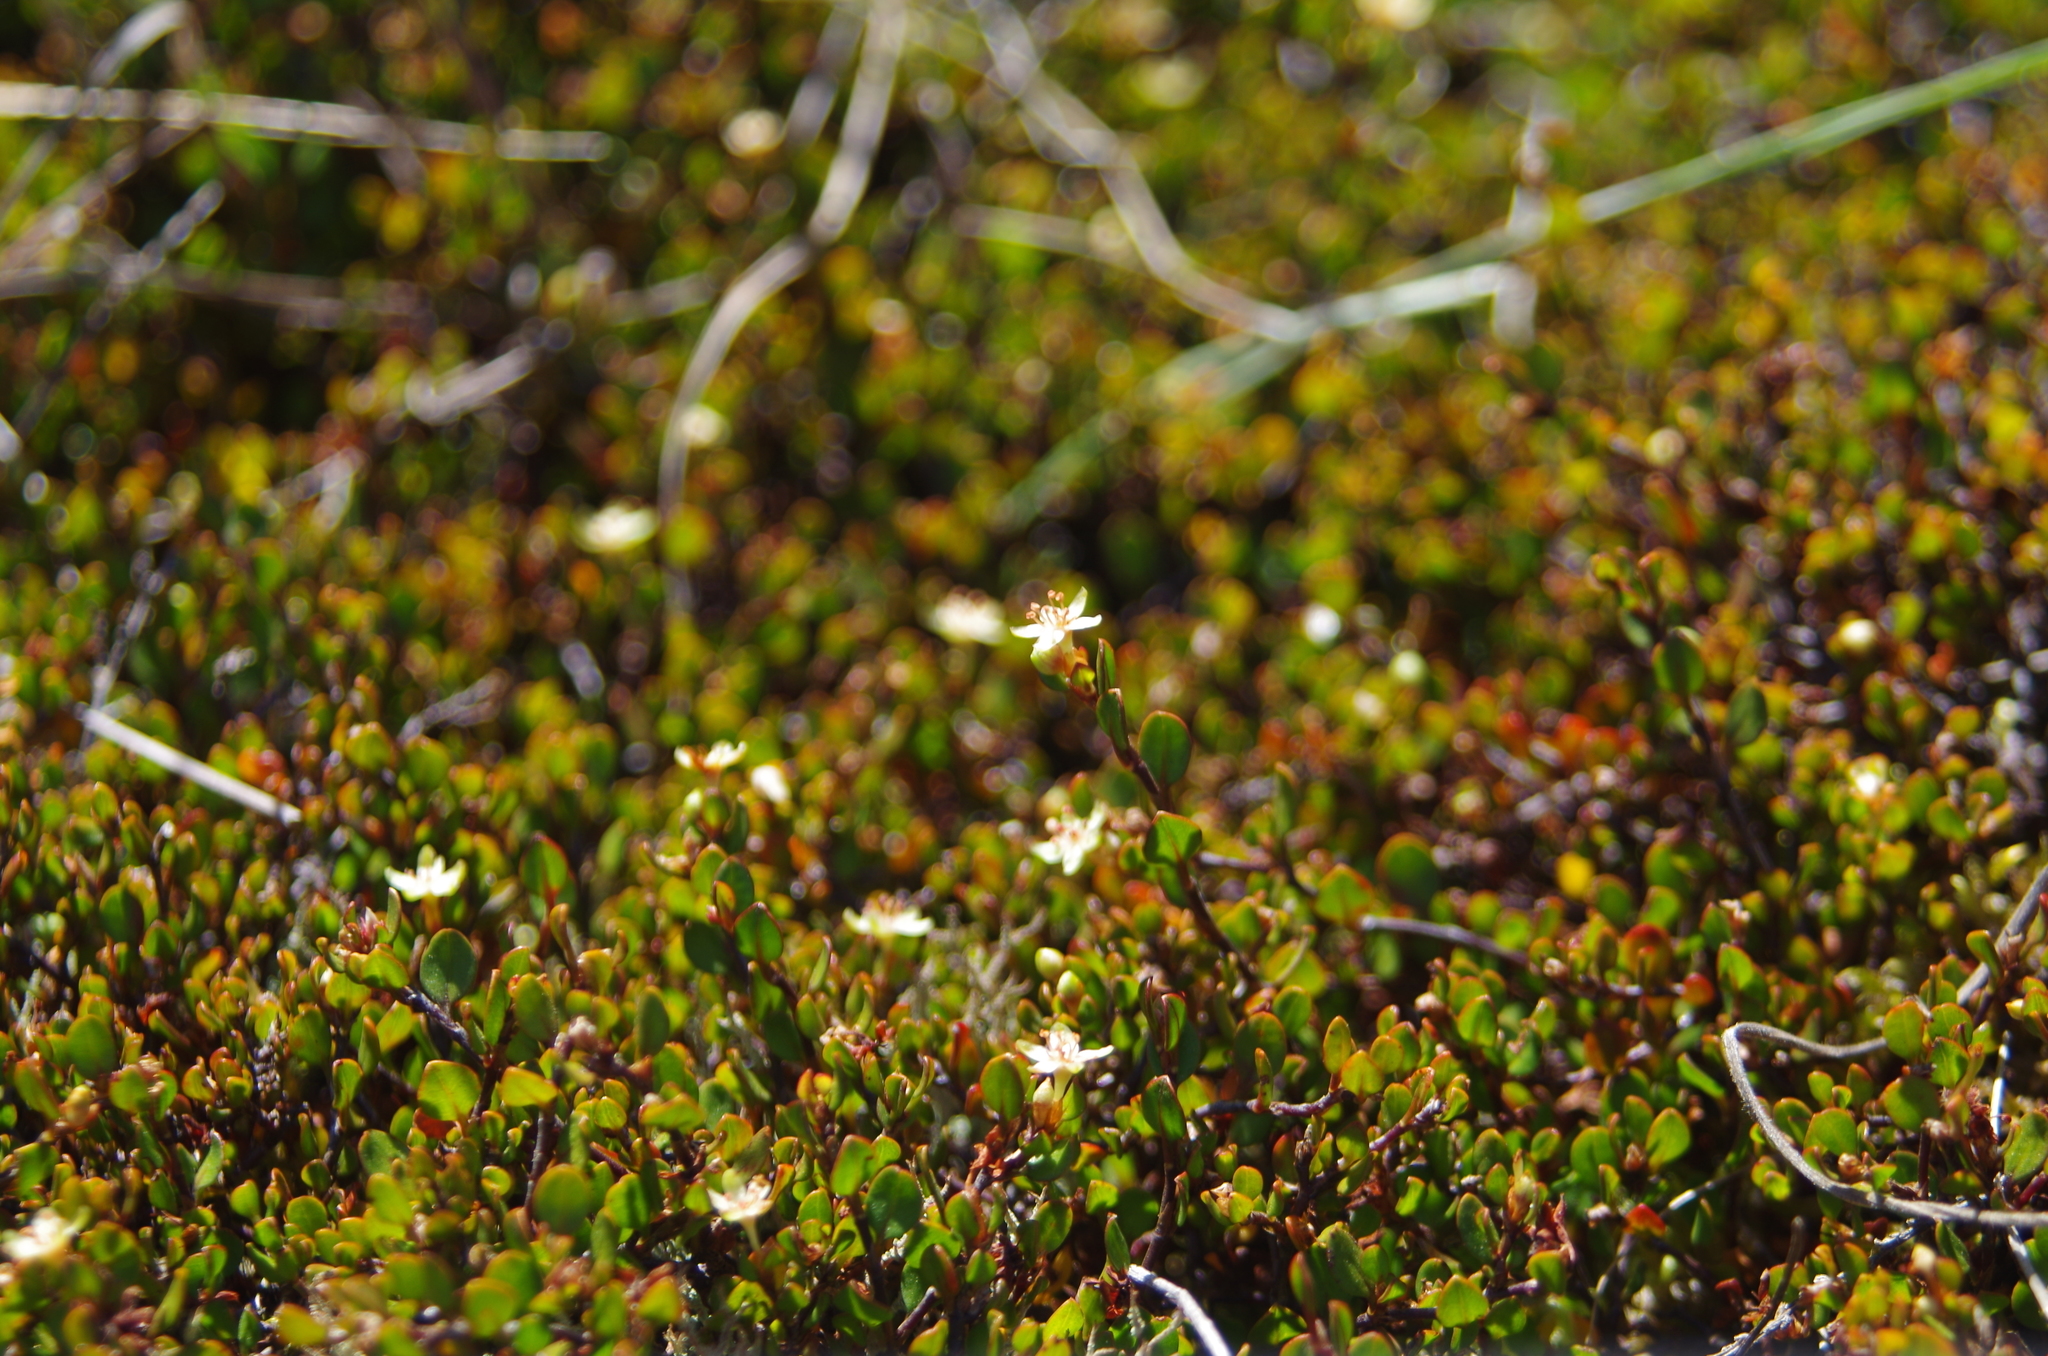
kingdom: Plantae
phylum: Tracheophyta
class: Magnoliopsida
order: Caryophyllales
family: Polygonaceae
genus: Muehlenbeckia
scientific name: Muehlenbeckia axillaris
